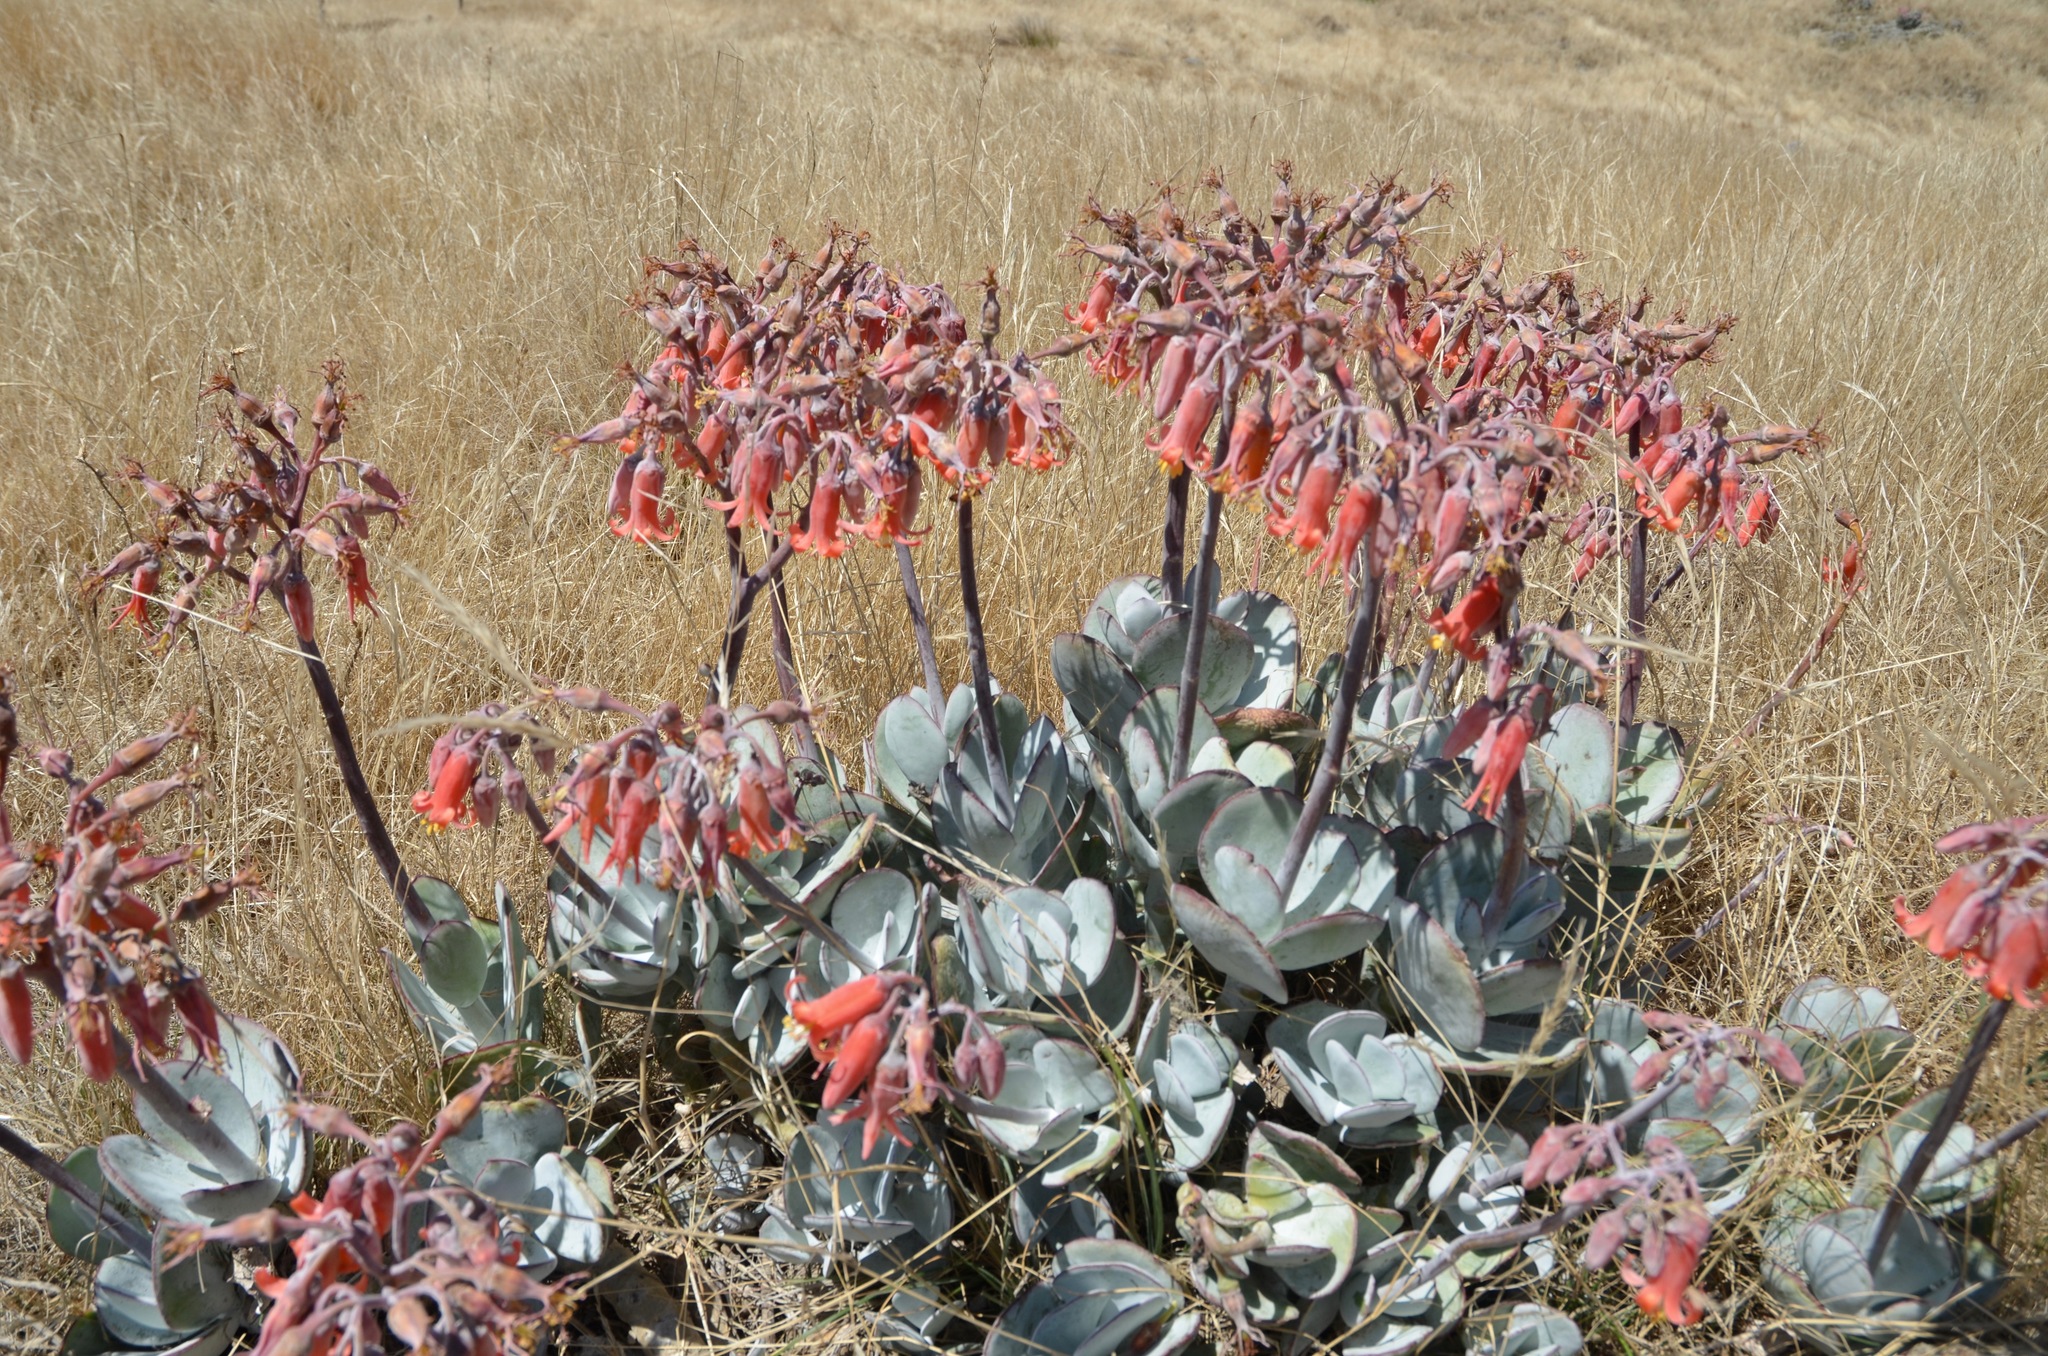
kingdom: Plantae
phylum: Tracheophyta
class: Magnoliopsida
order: Saxifragales
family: Crassulaceae
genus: Cotyledon
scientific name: Cotyledon orbiculata
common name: Pig's ear
